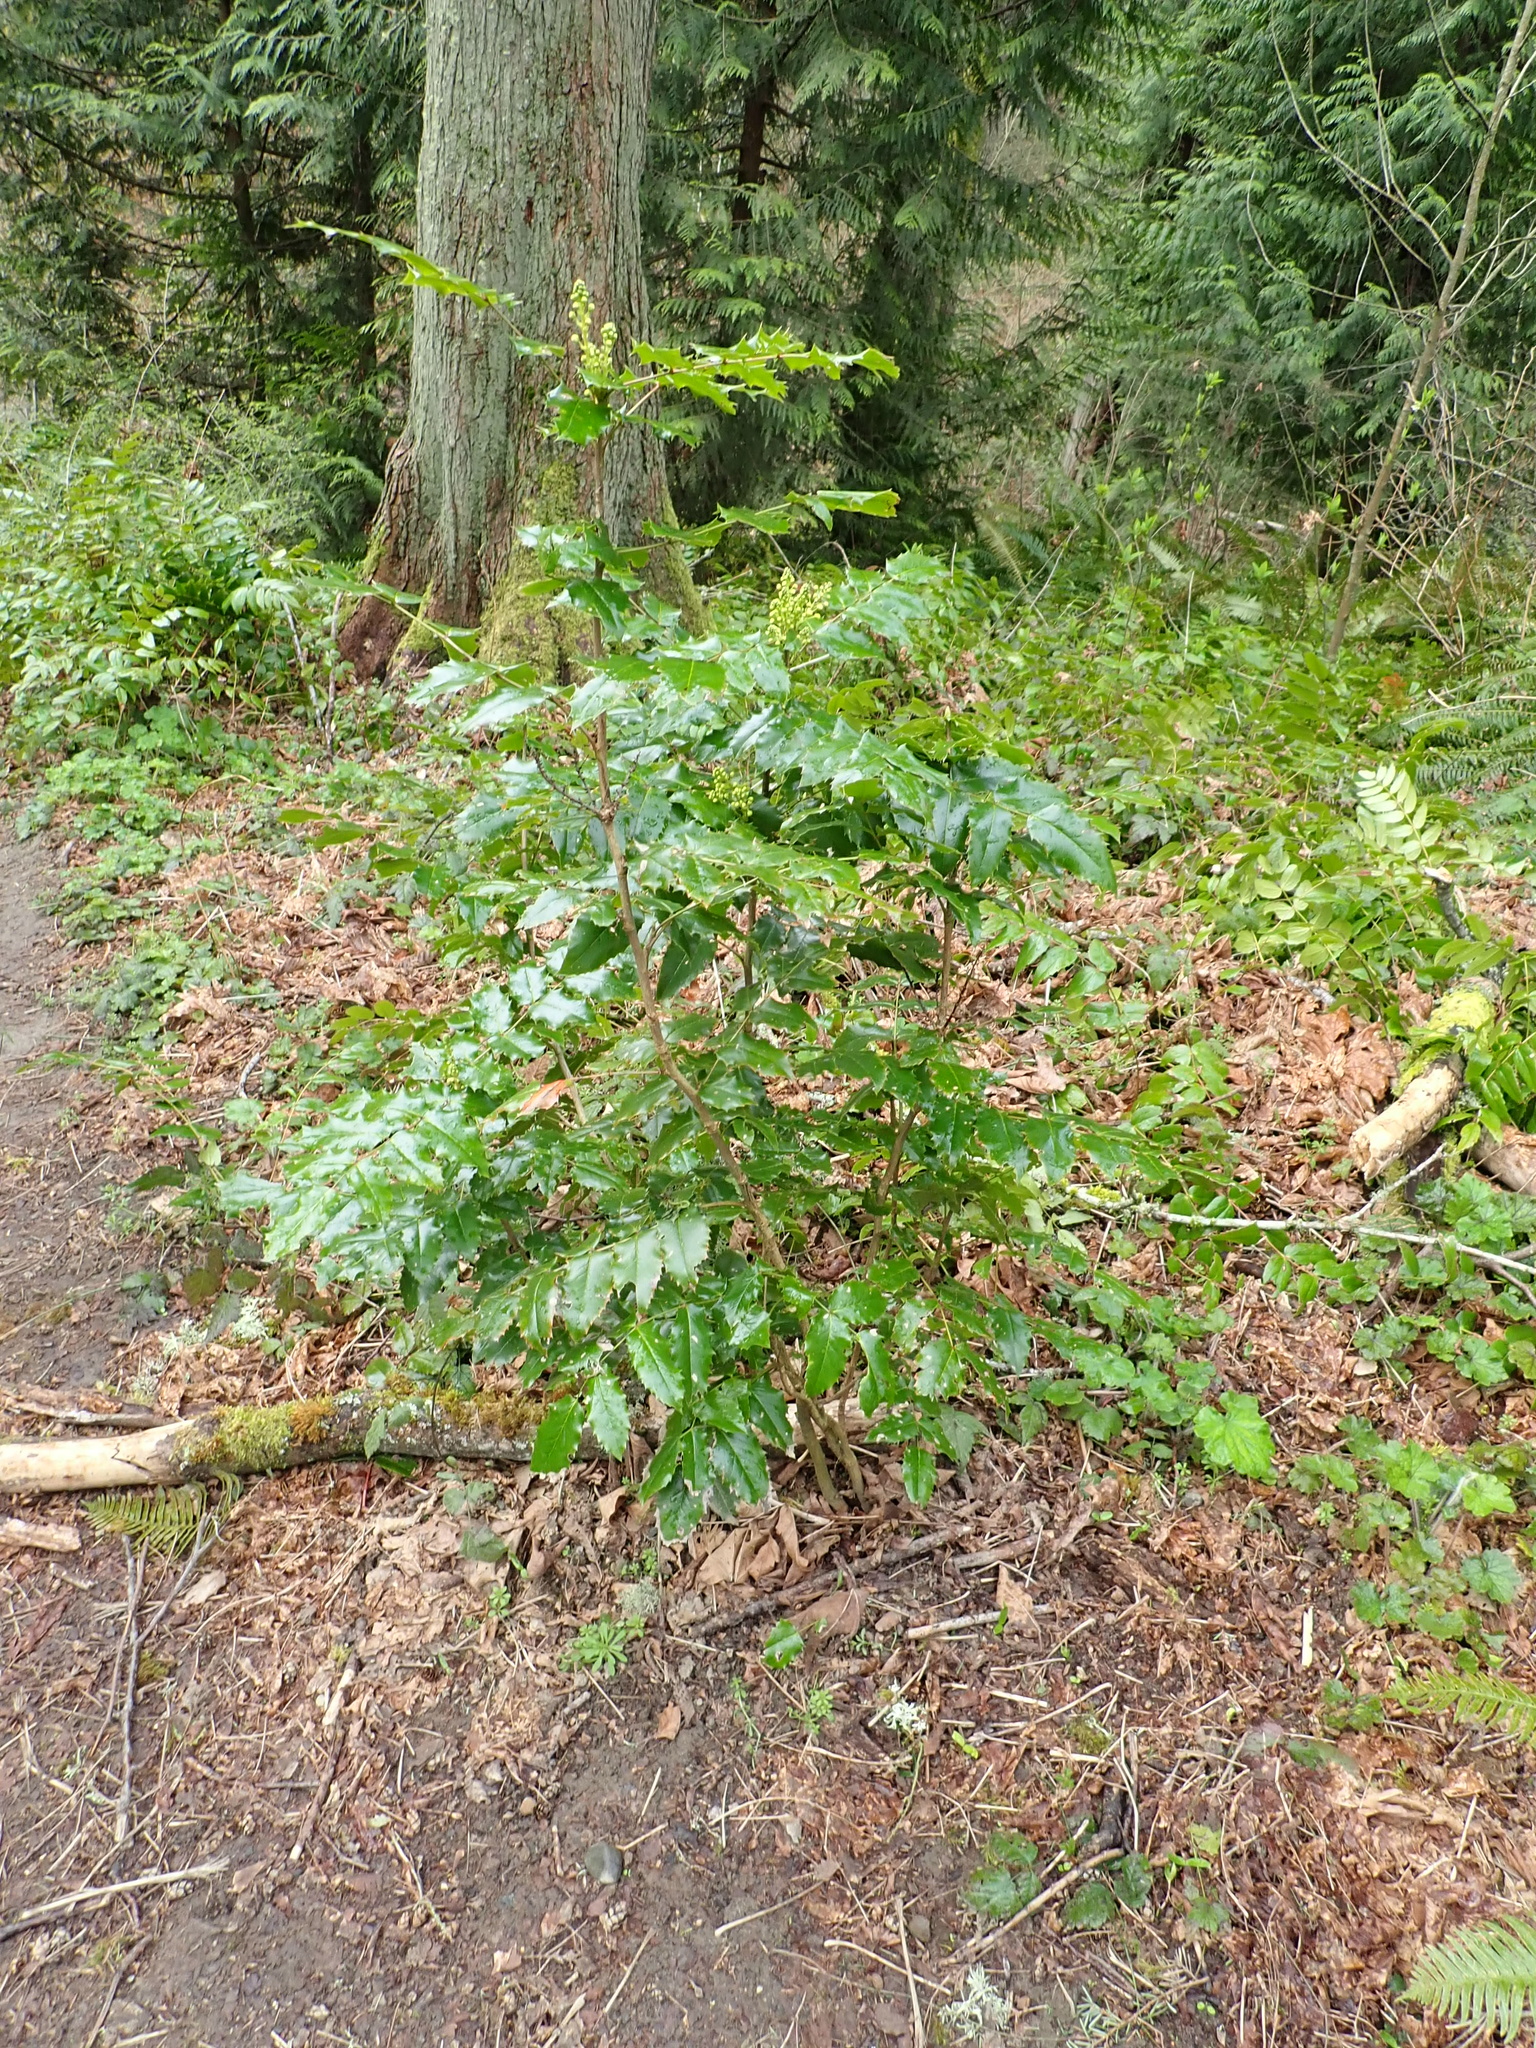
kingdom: Plantae
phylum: Tracheophyta
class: Magnoliopsida
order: Ranunculales
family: Berberidaceae
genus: Mahonia
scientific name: Mahonia aquifolium
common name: Oregon-grape
